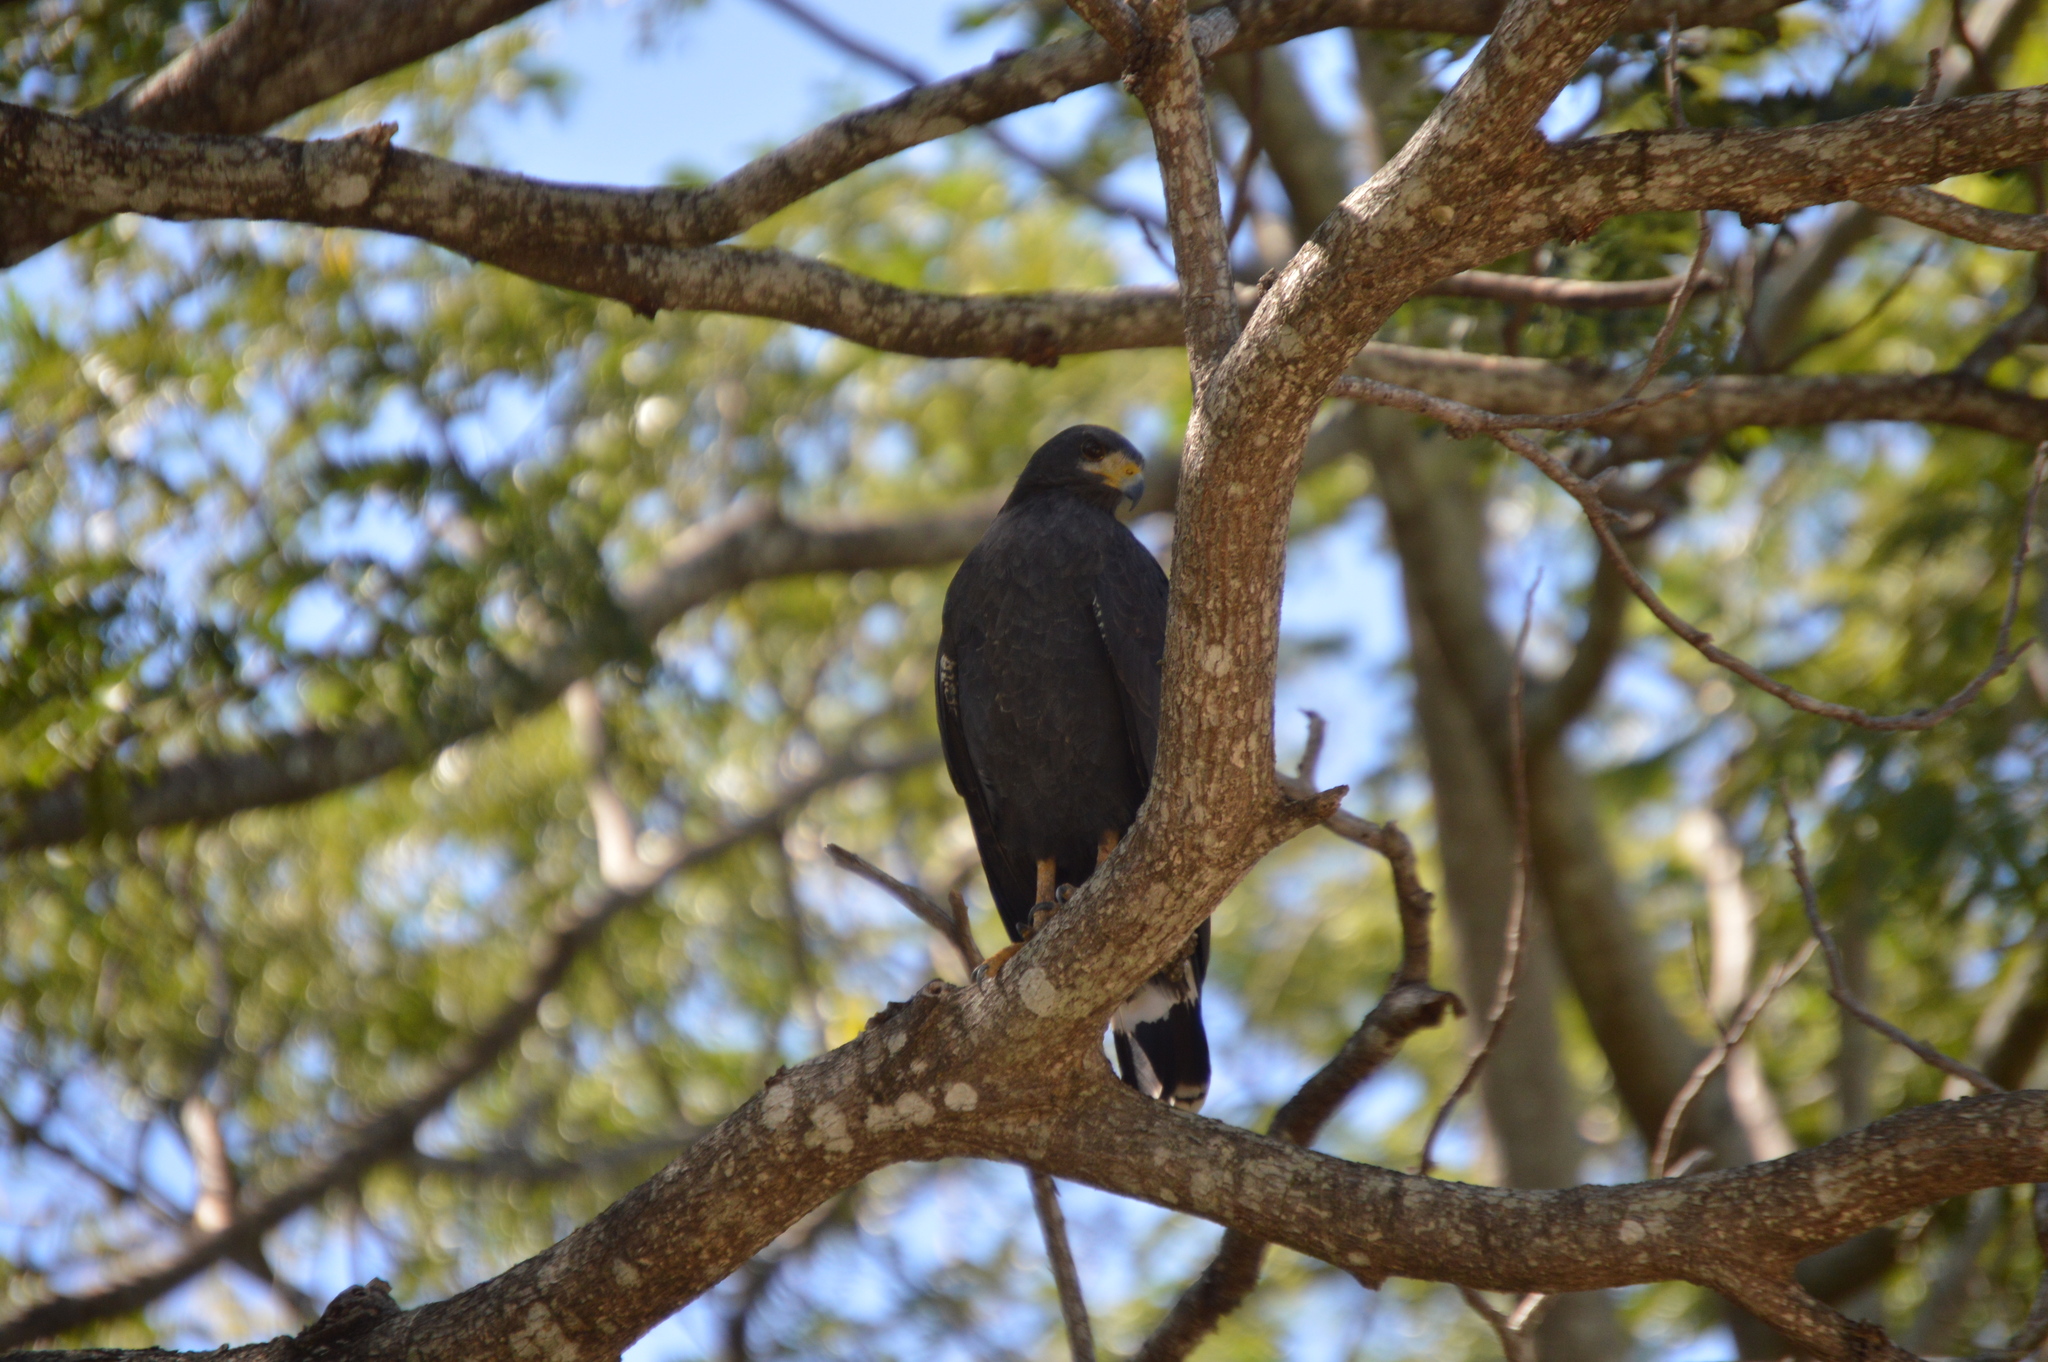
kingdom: Animalia
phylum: Chordata
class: Aves
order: Accipitriformes
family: Accipitridae
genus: Buteogallus
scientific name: Buteogallus anthracinus
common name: Common black hawk
